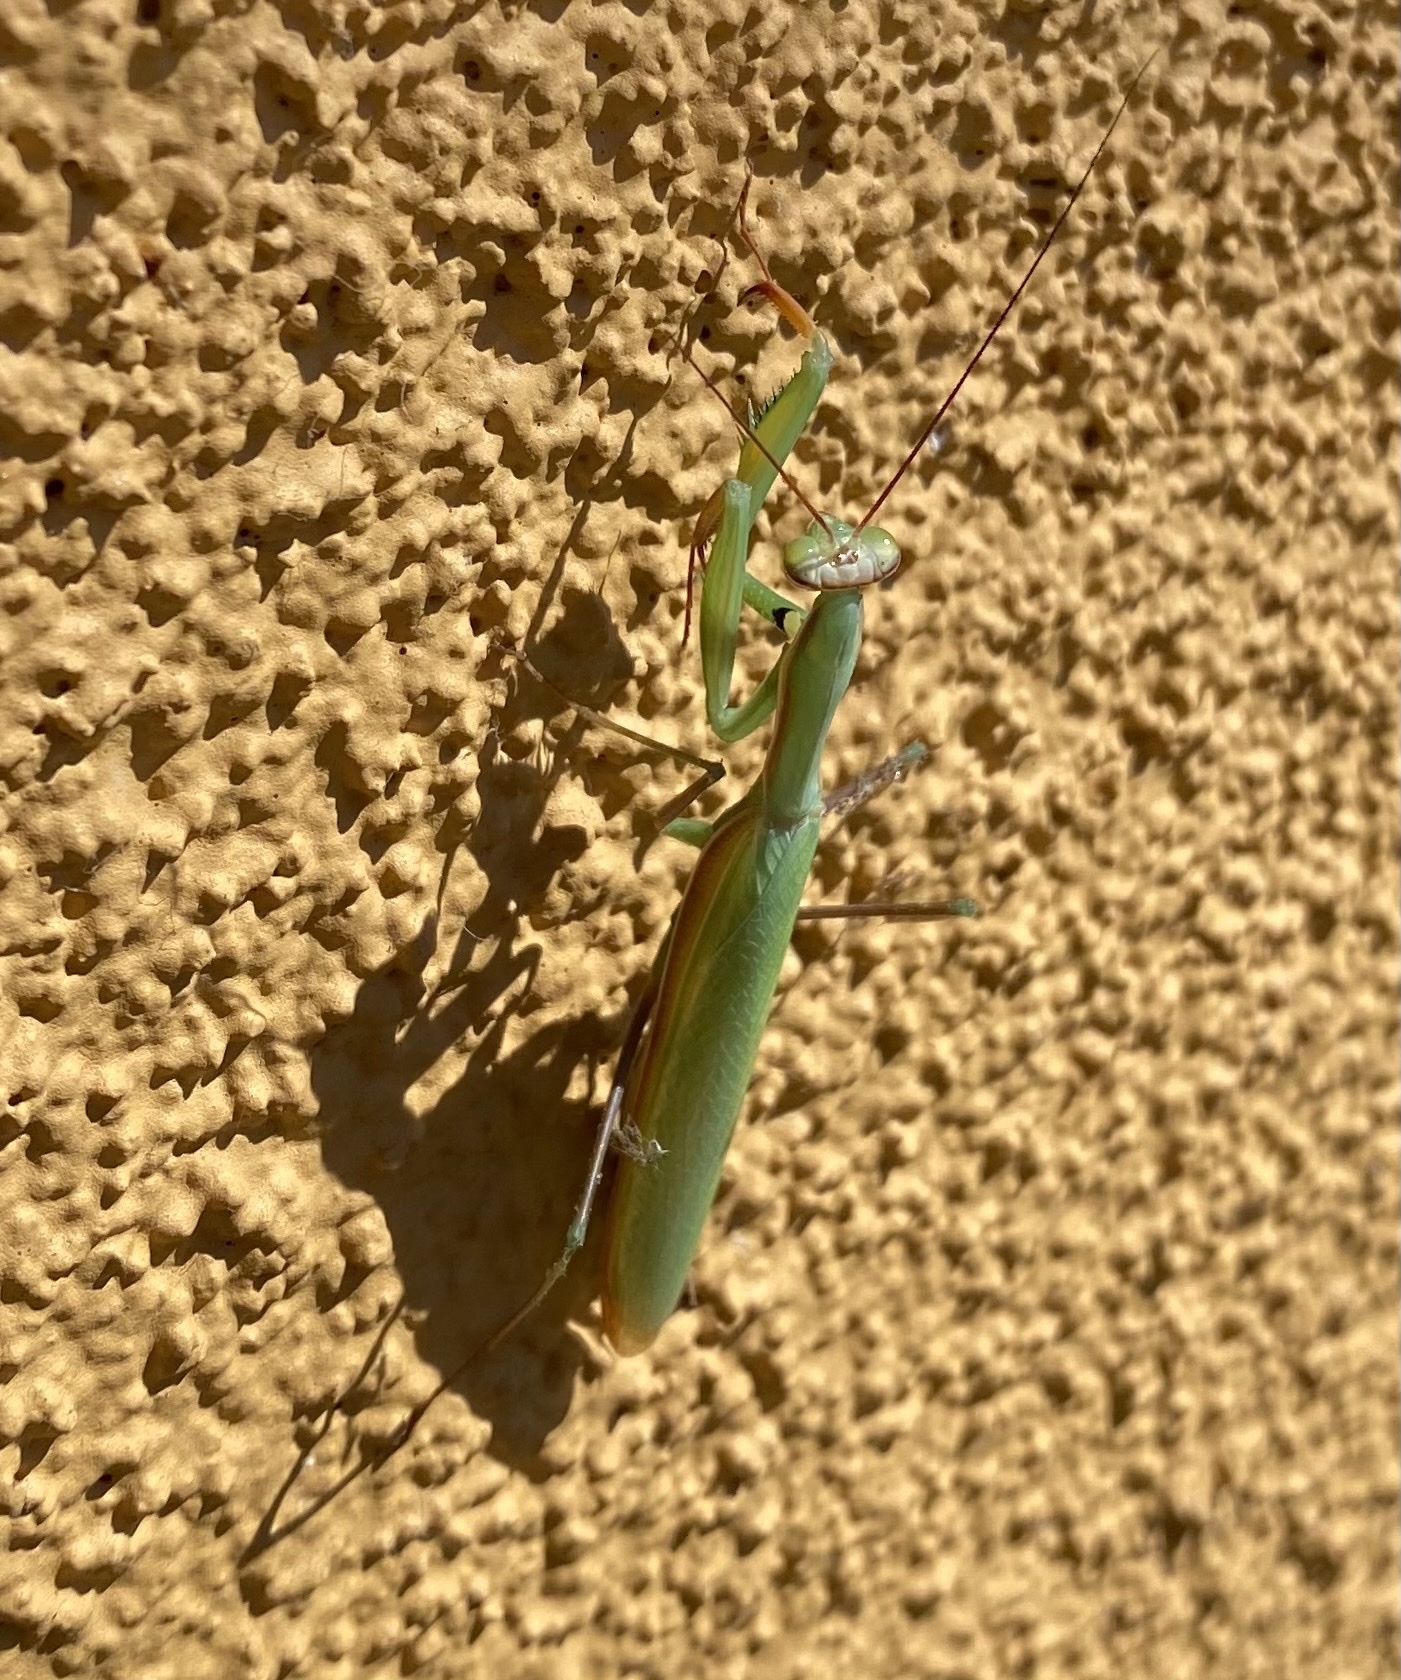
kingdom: Animalia
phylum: Arthropoda
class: Insecta
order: Mantodea
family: Mantidae
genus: Mantis
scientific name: Mantis religiosa
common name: Praying mantis
